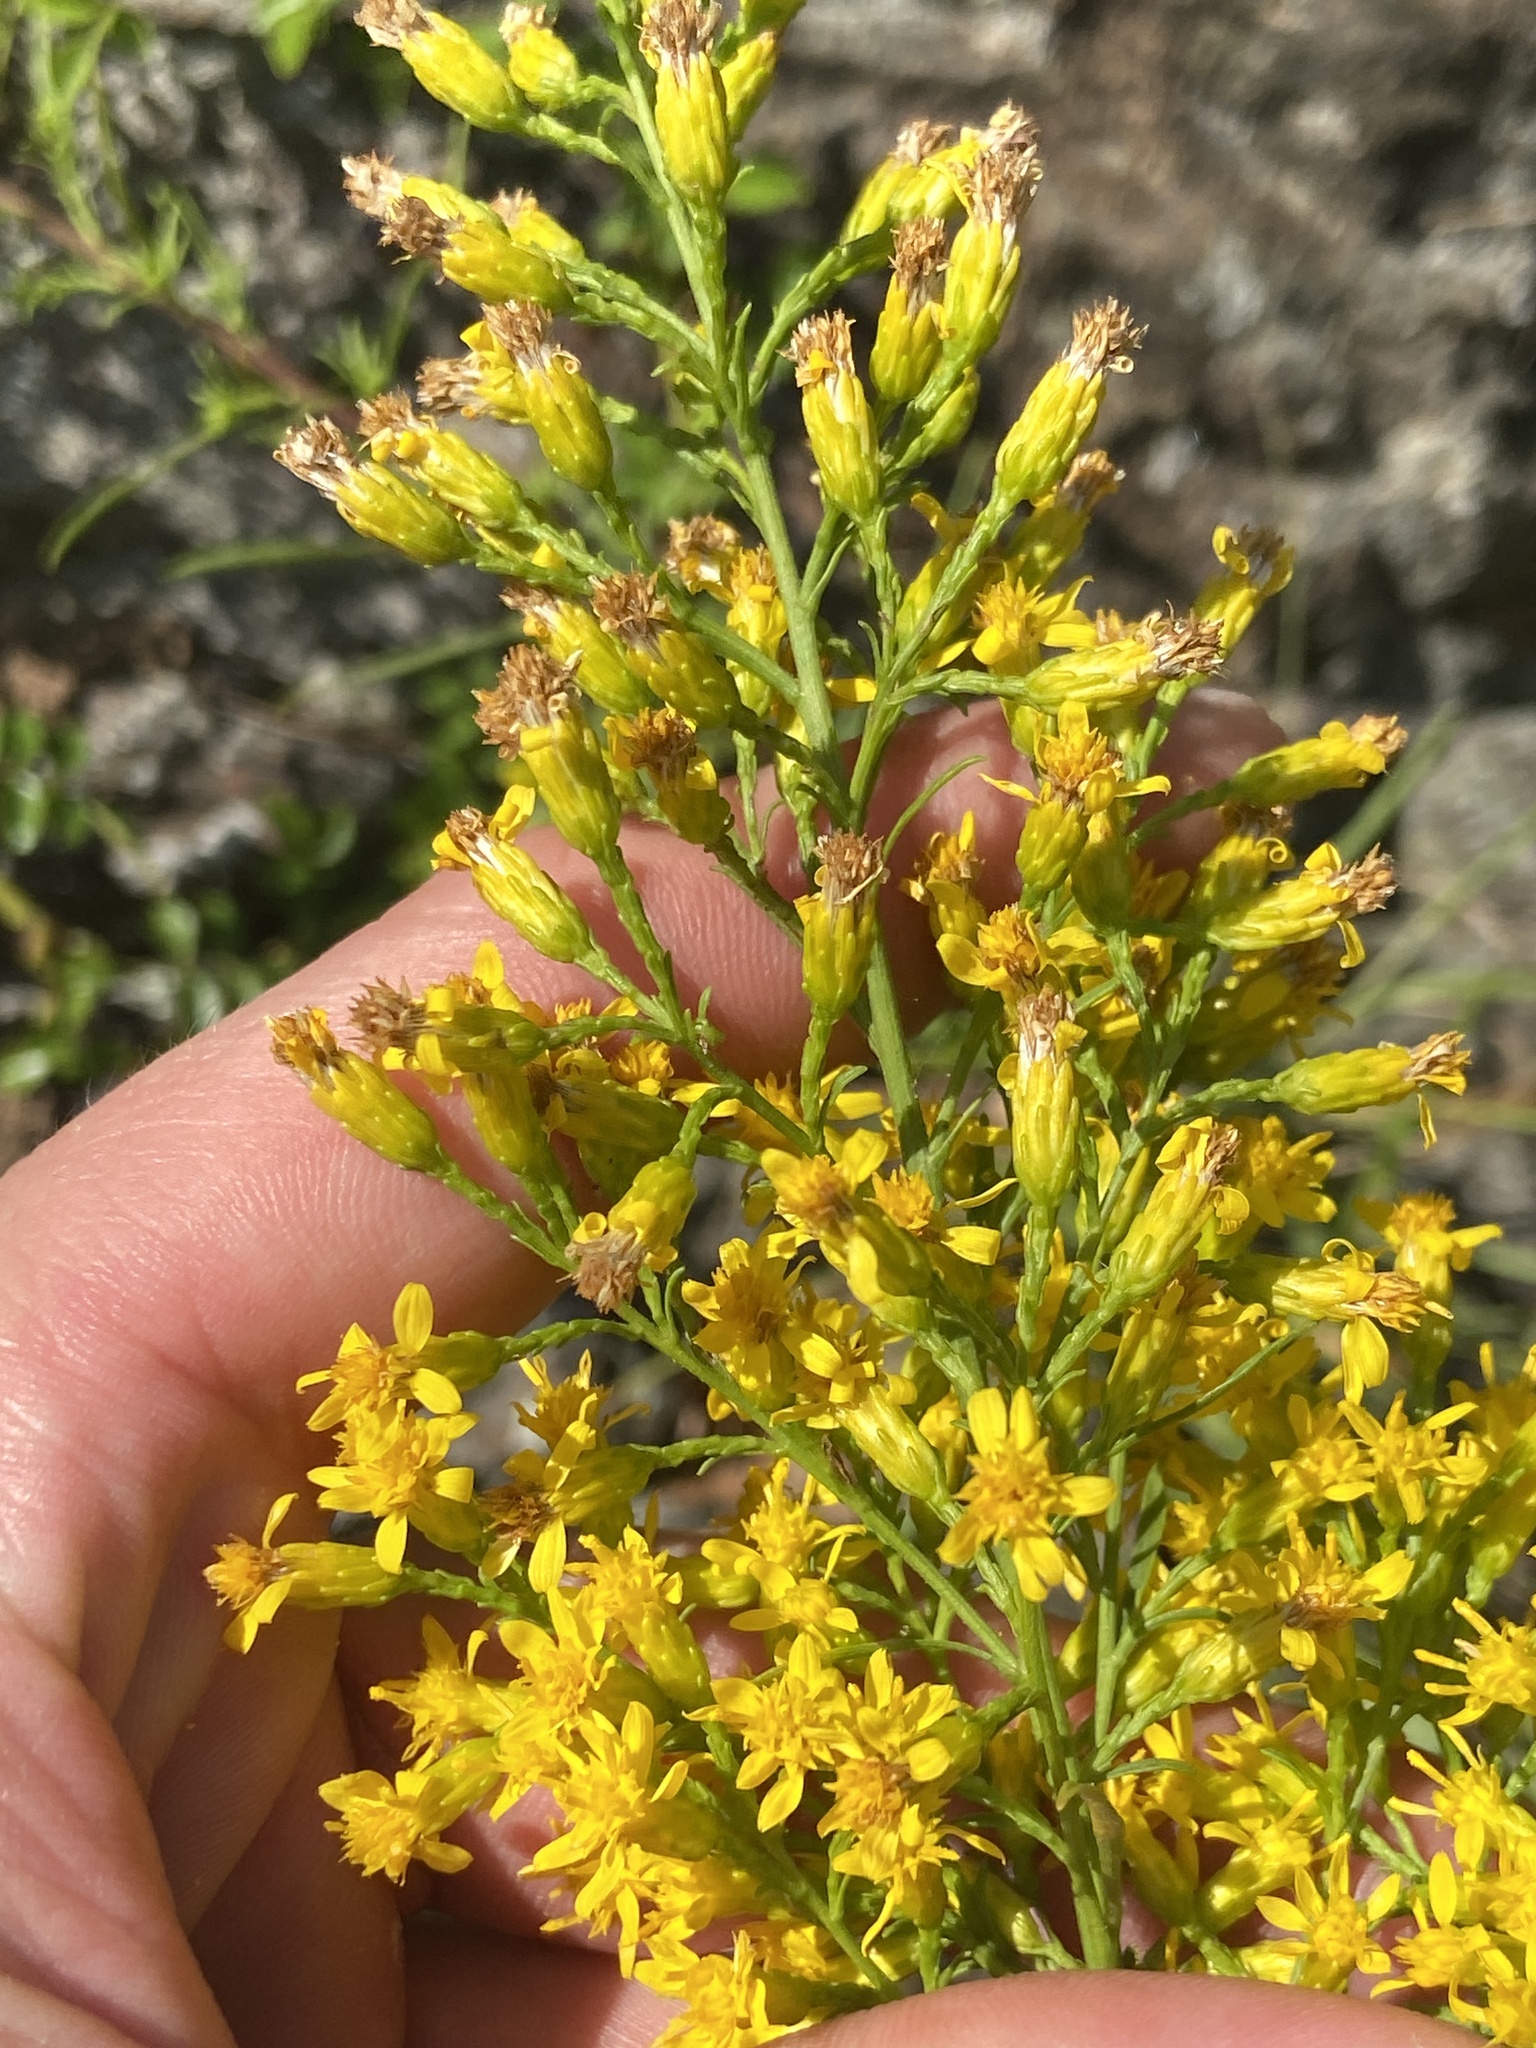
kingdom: Plantae
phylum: Tracheophyta
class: Magnoliopsida
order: Asterales
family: Asteraceae
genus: Solidago
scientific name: Solidago plumosa
